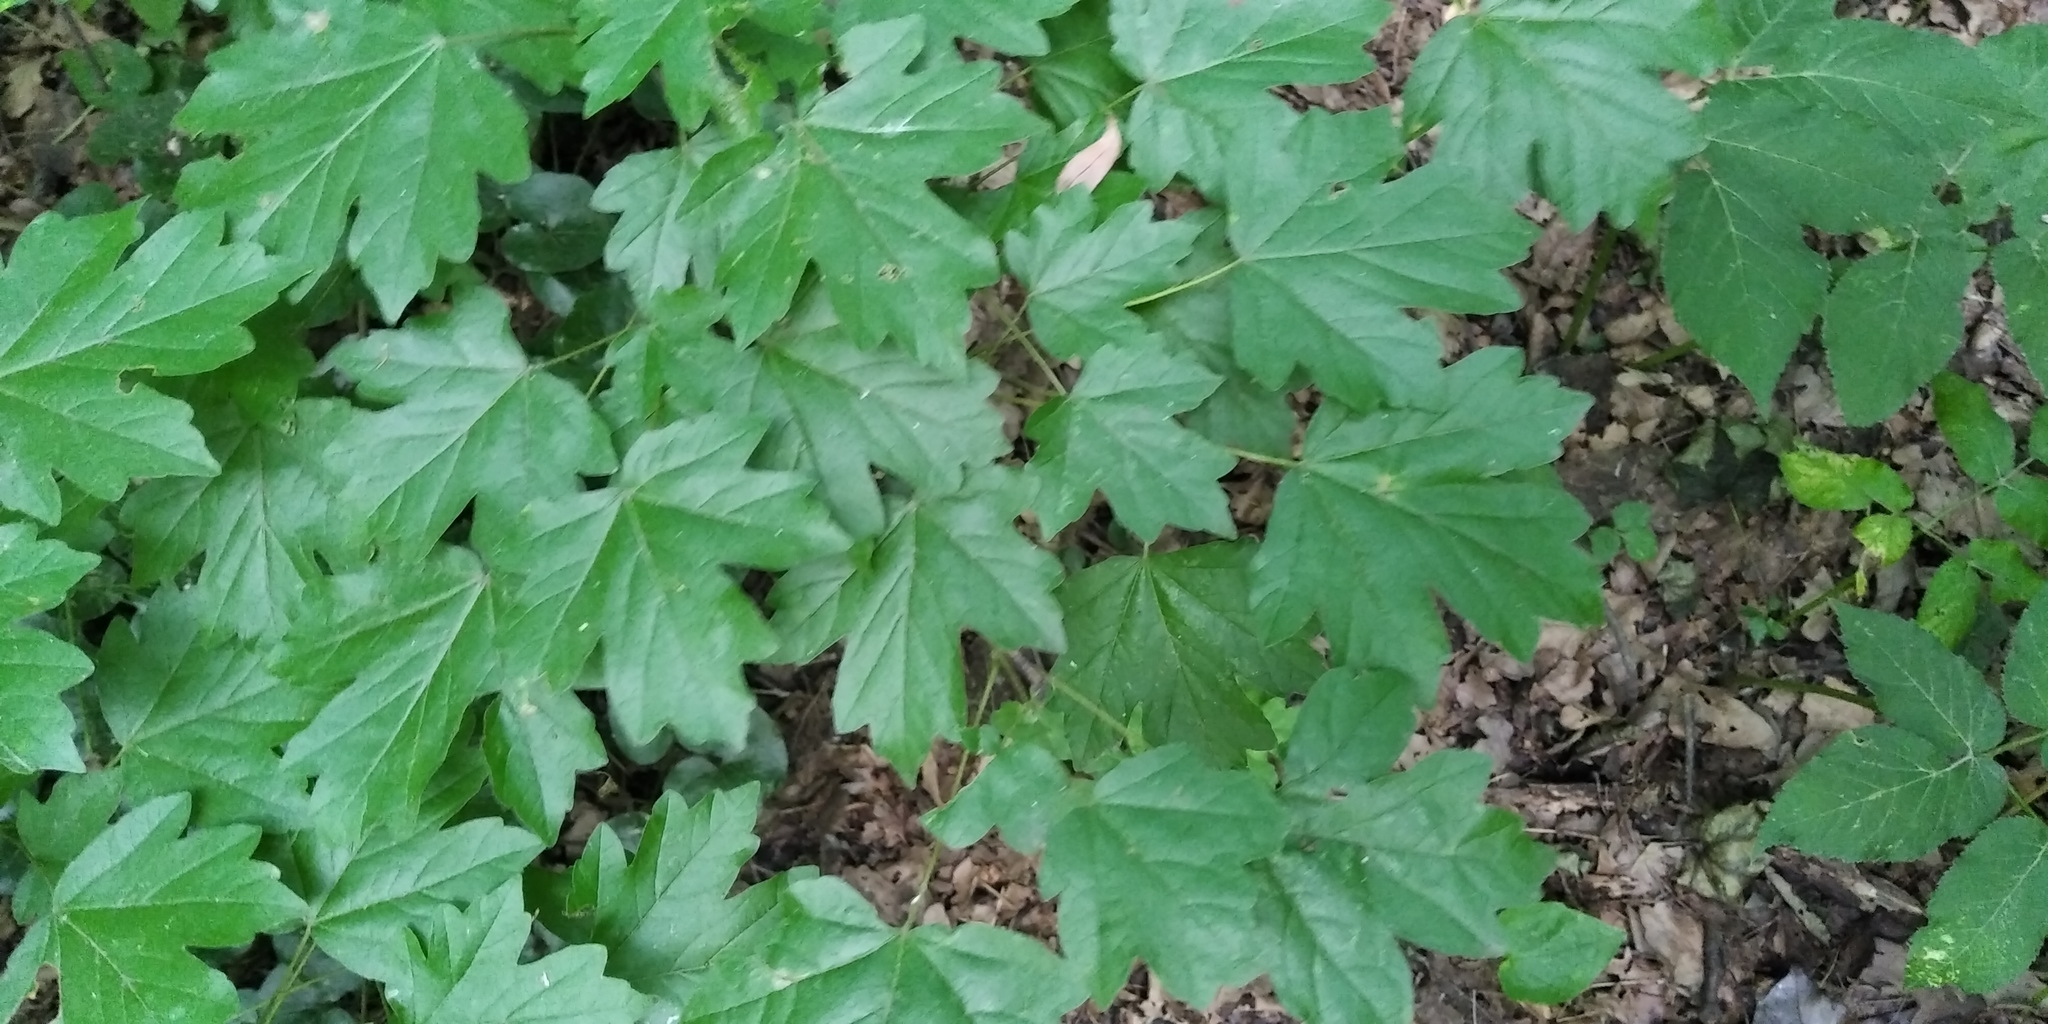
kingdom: Plantae
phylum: Tracheophyta
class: Magnoliopsida
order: Sapindales
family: Sapindaceae
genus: Acer
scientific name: Acer campestre
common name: Field maple
